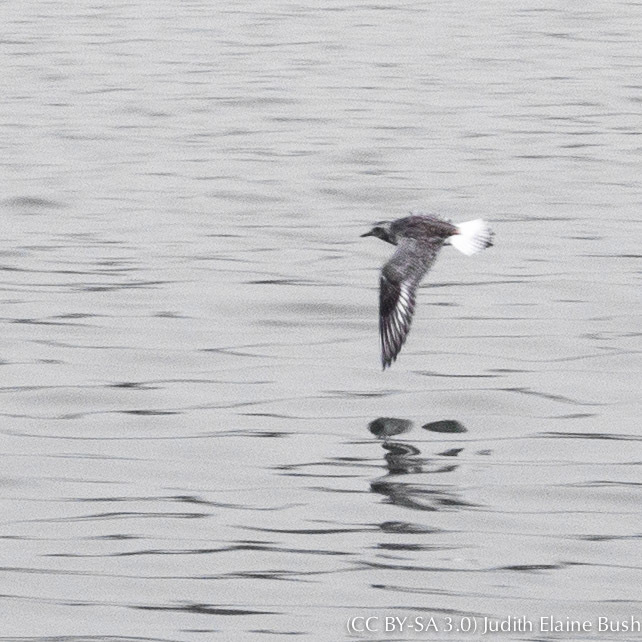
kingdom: Animalia
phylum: Chordata
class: Aves
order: Charadriiformes
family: Charadriidae
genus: Pluvialis
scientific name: Pluvialis squatarola
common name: Grey plover
